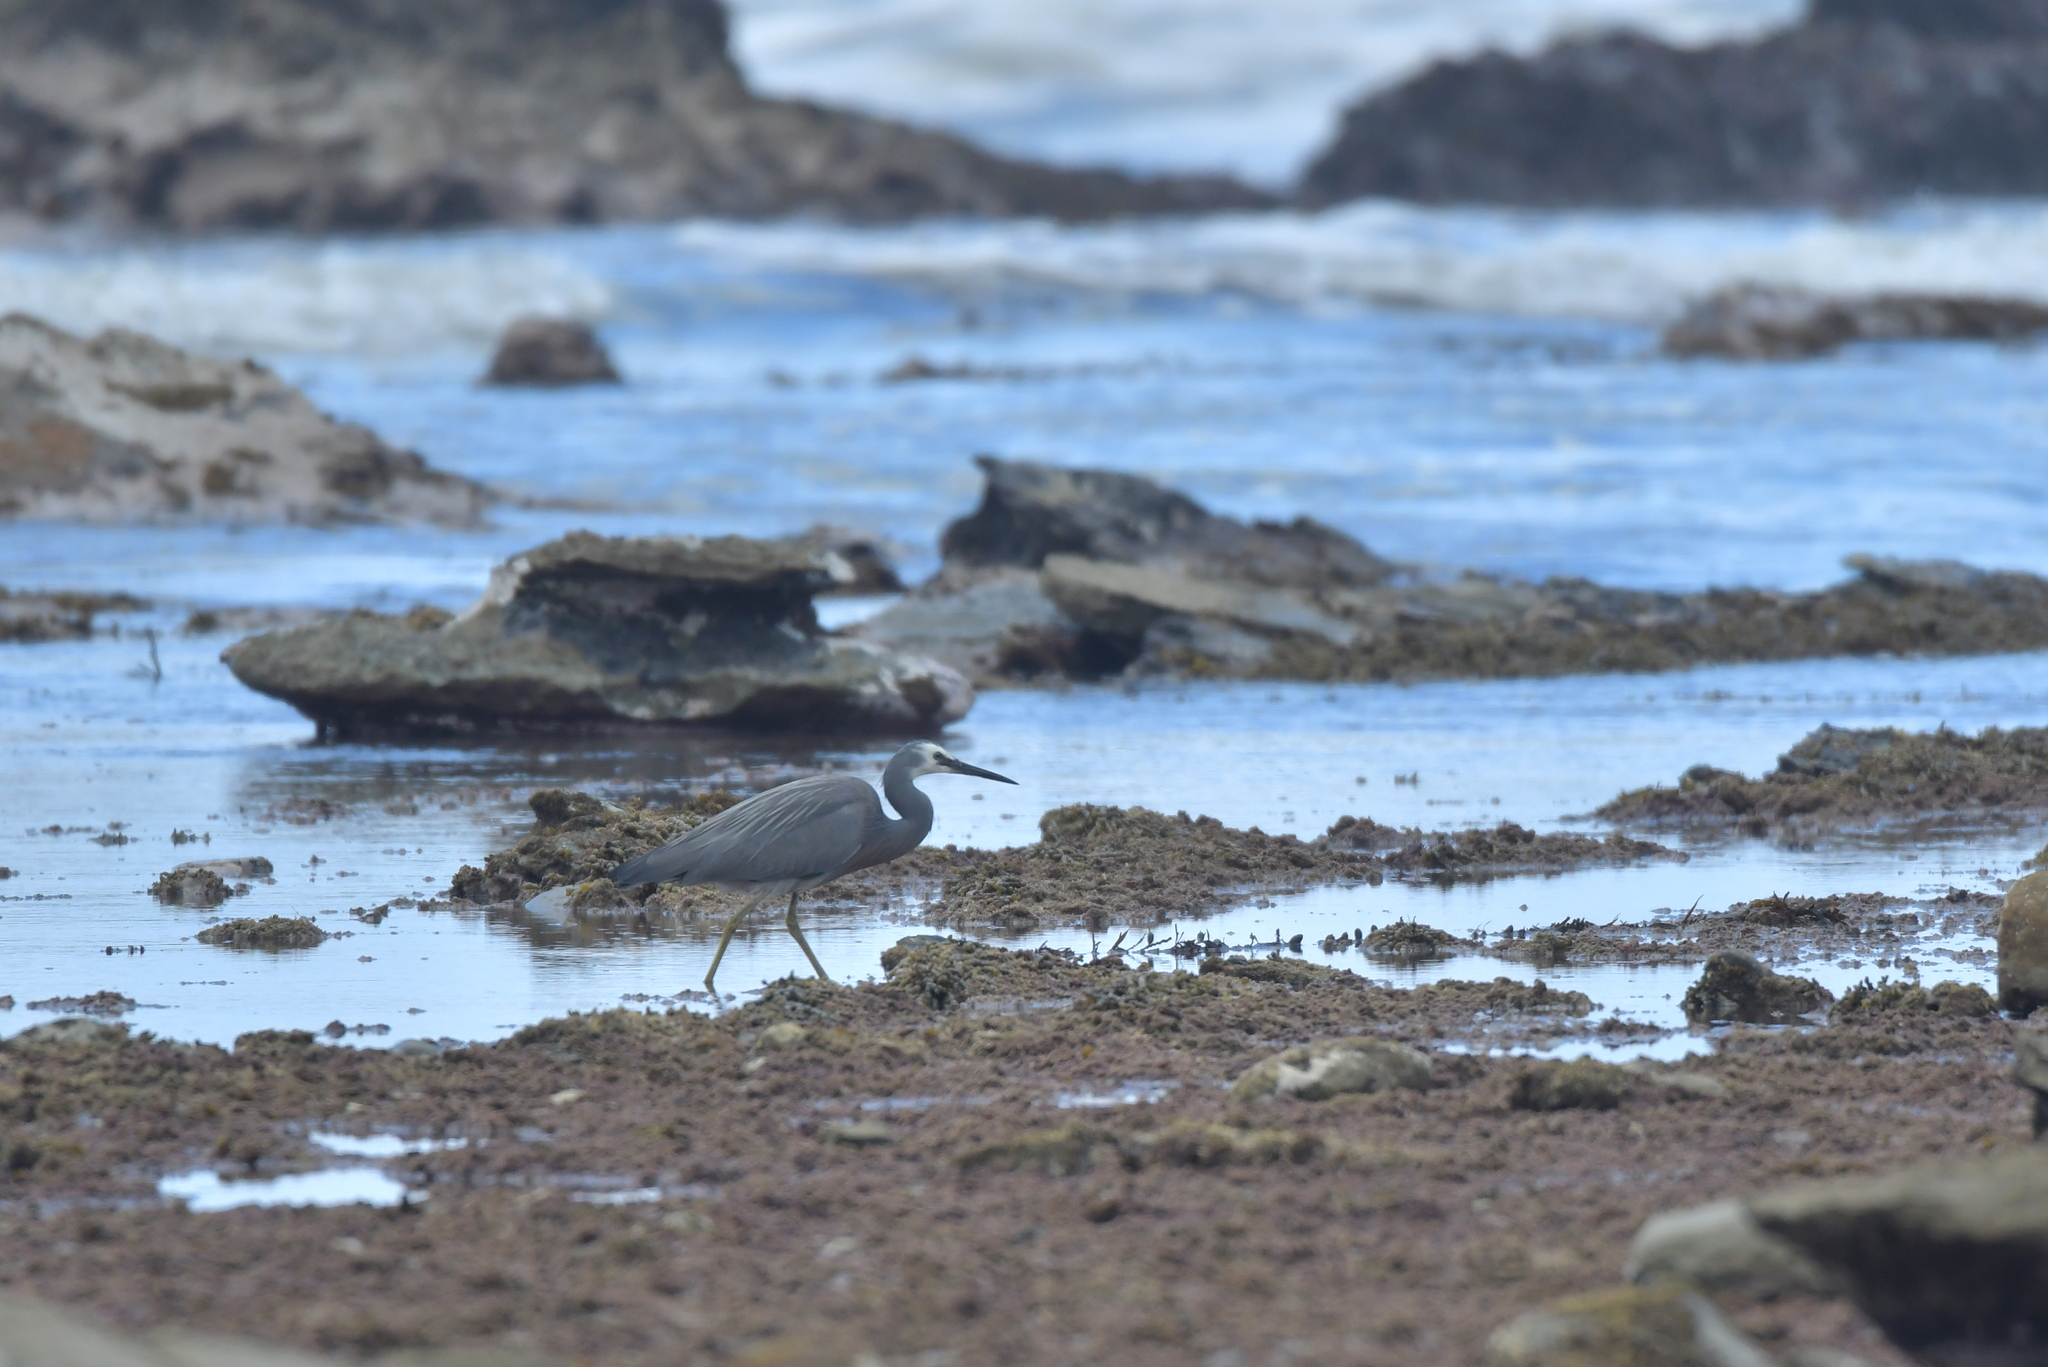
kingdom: Animalia
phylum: Chordata
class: Aves
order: Pelecaniformes
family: Ardeidae
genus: Egretta
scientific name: Egretta novaehollandiae
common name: White-faced heron
